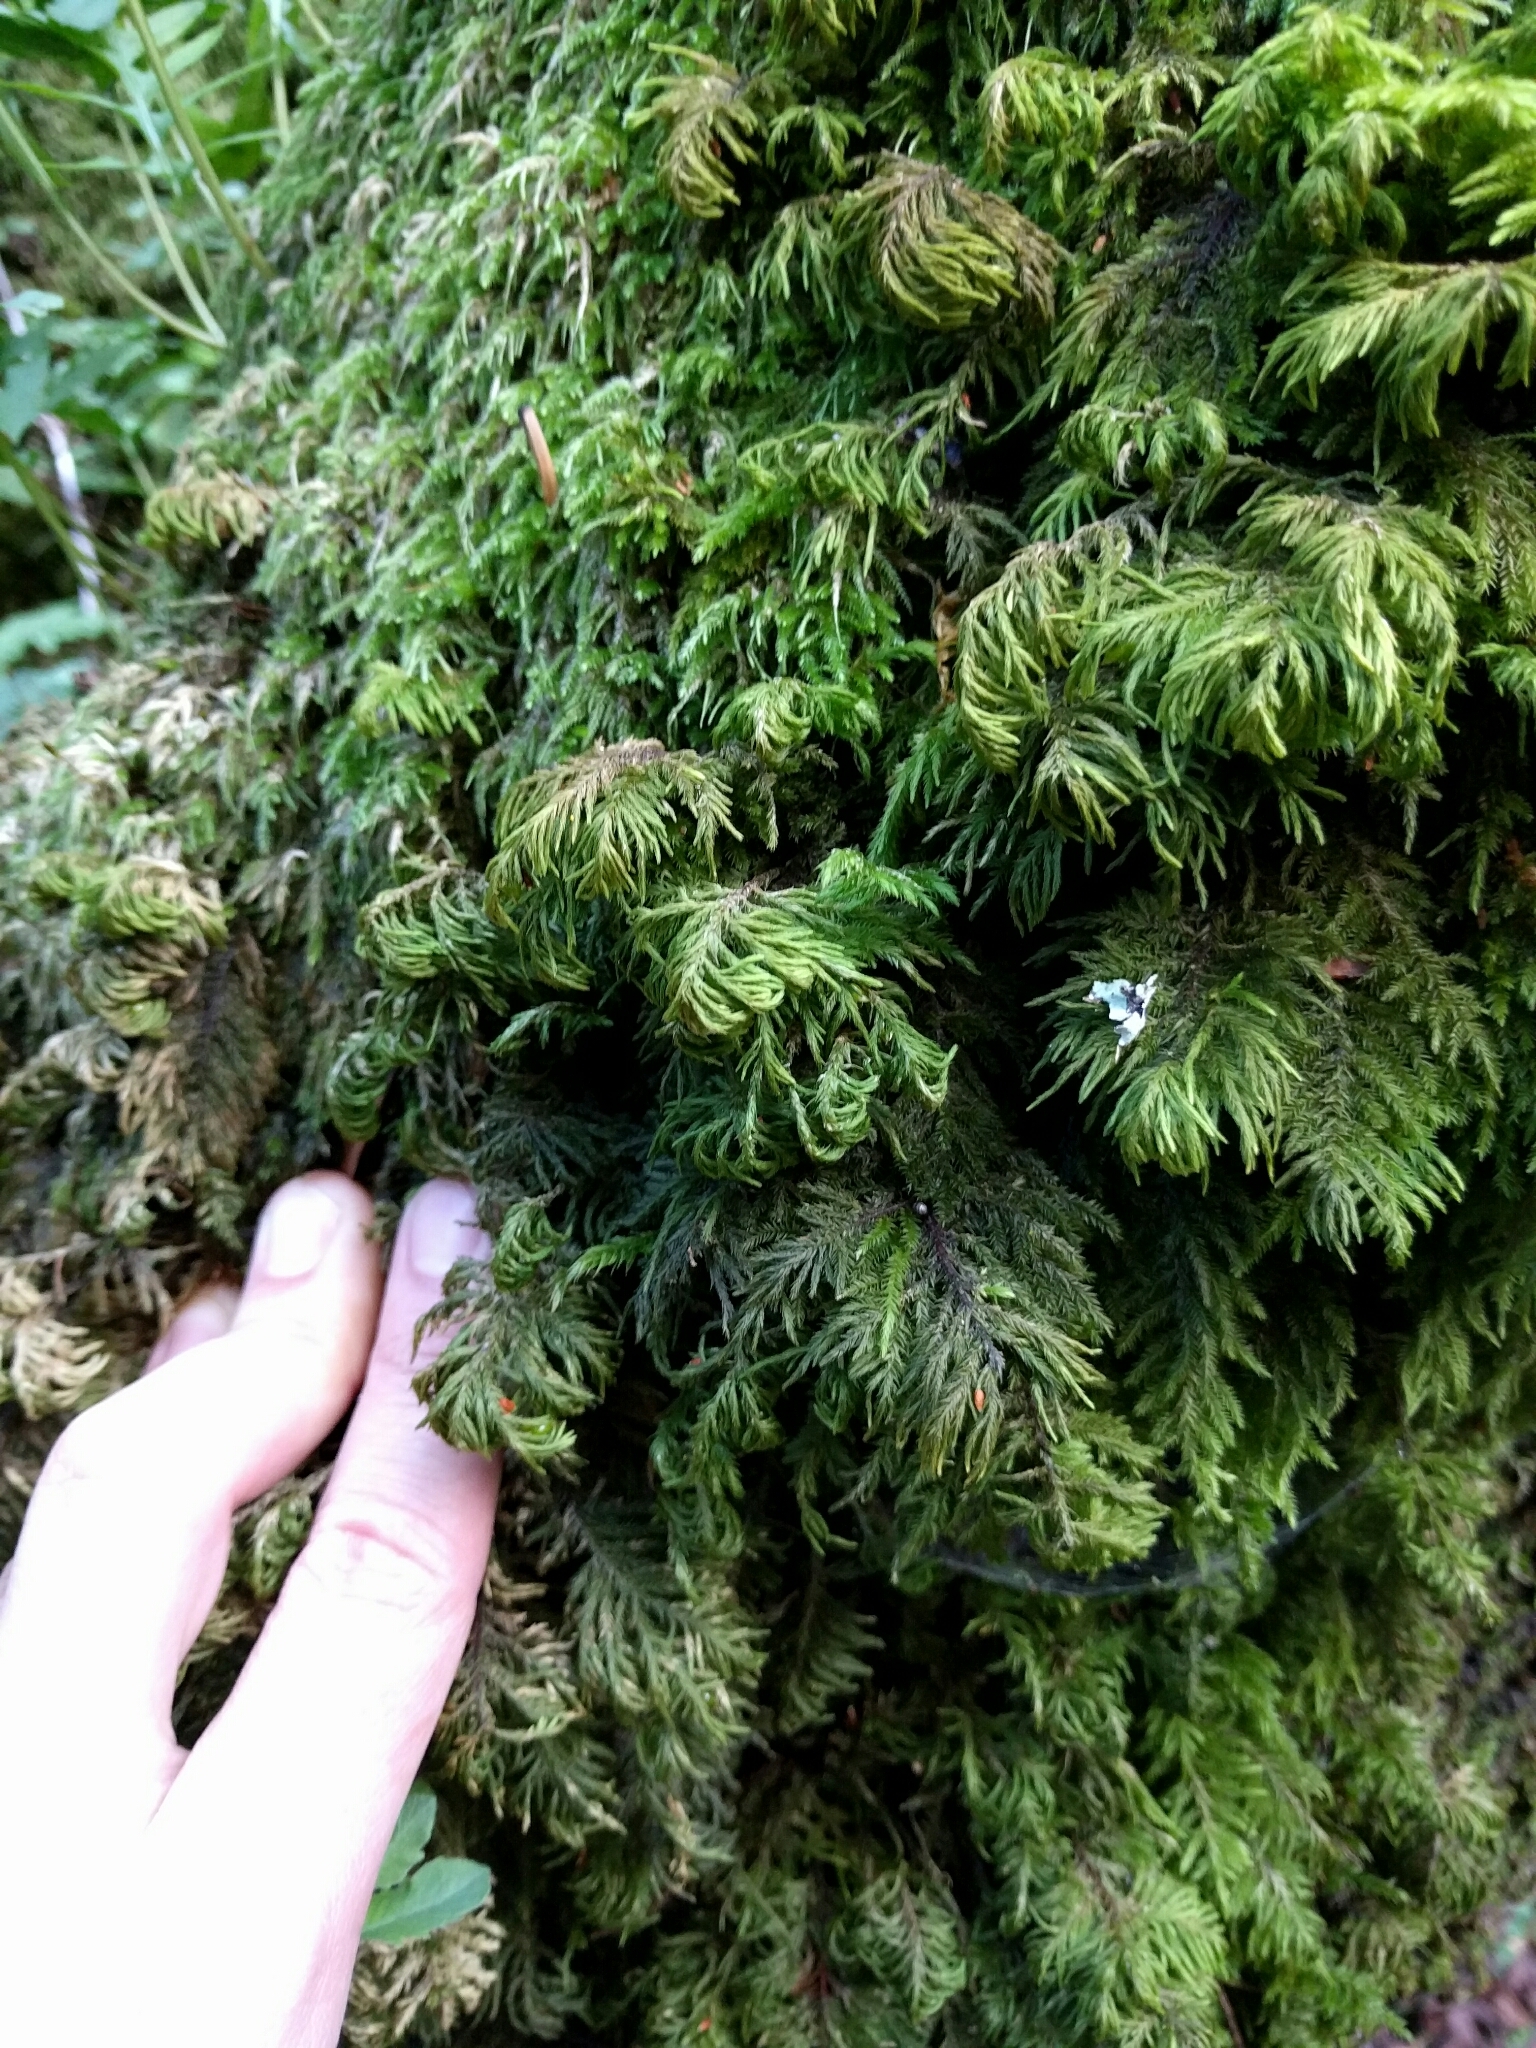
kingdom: Plantae
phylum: Bryophyta
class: Bryopsida
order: Hypnales
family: Cryphaeaceae
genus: Dendroalsia
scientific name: Dendroalsia abietina
